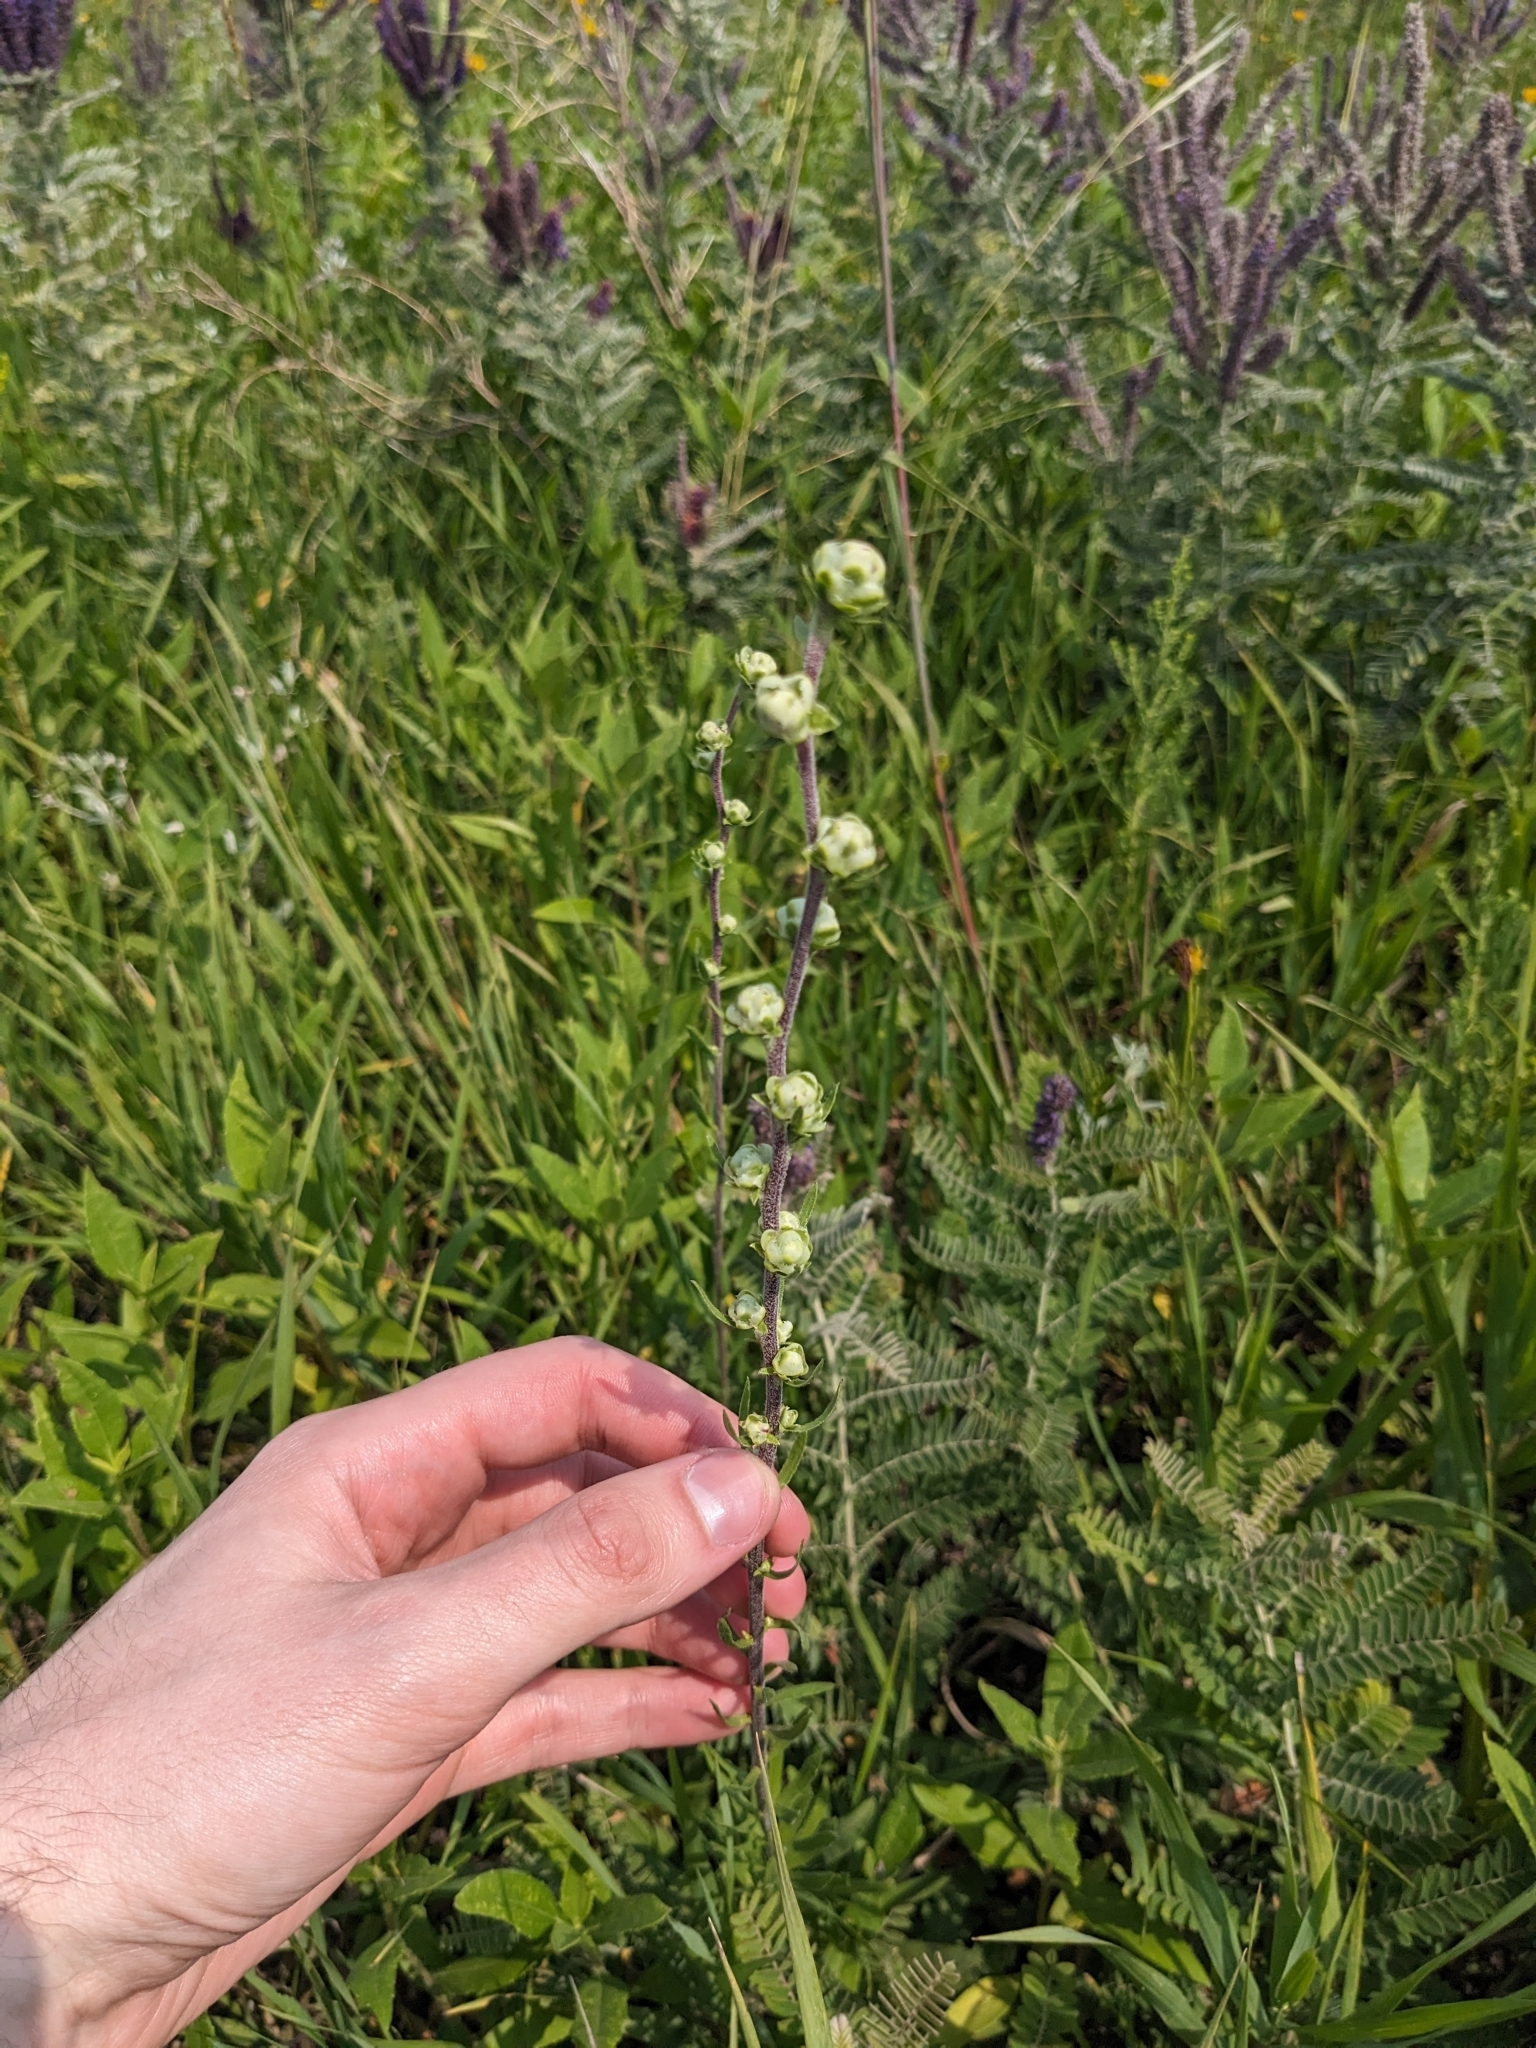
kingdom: Plantae
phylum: Tracheophyta
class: Magnoliopsida
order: Asterales
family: Asteraceae
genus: Liatris
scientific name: Liatris aspera
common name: Lacerate blazing-star
